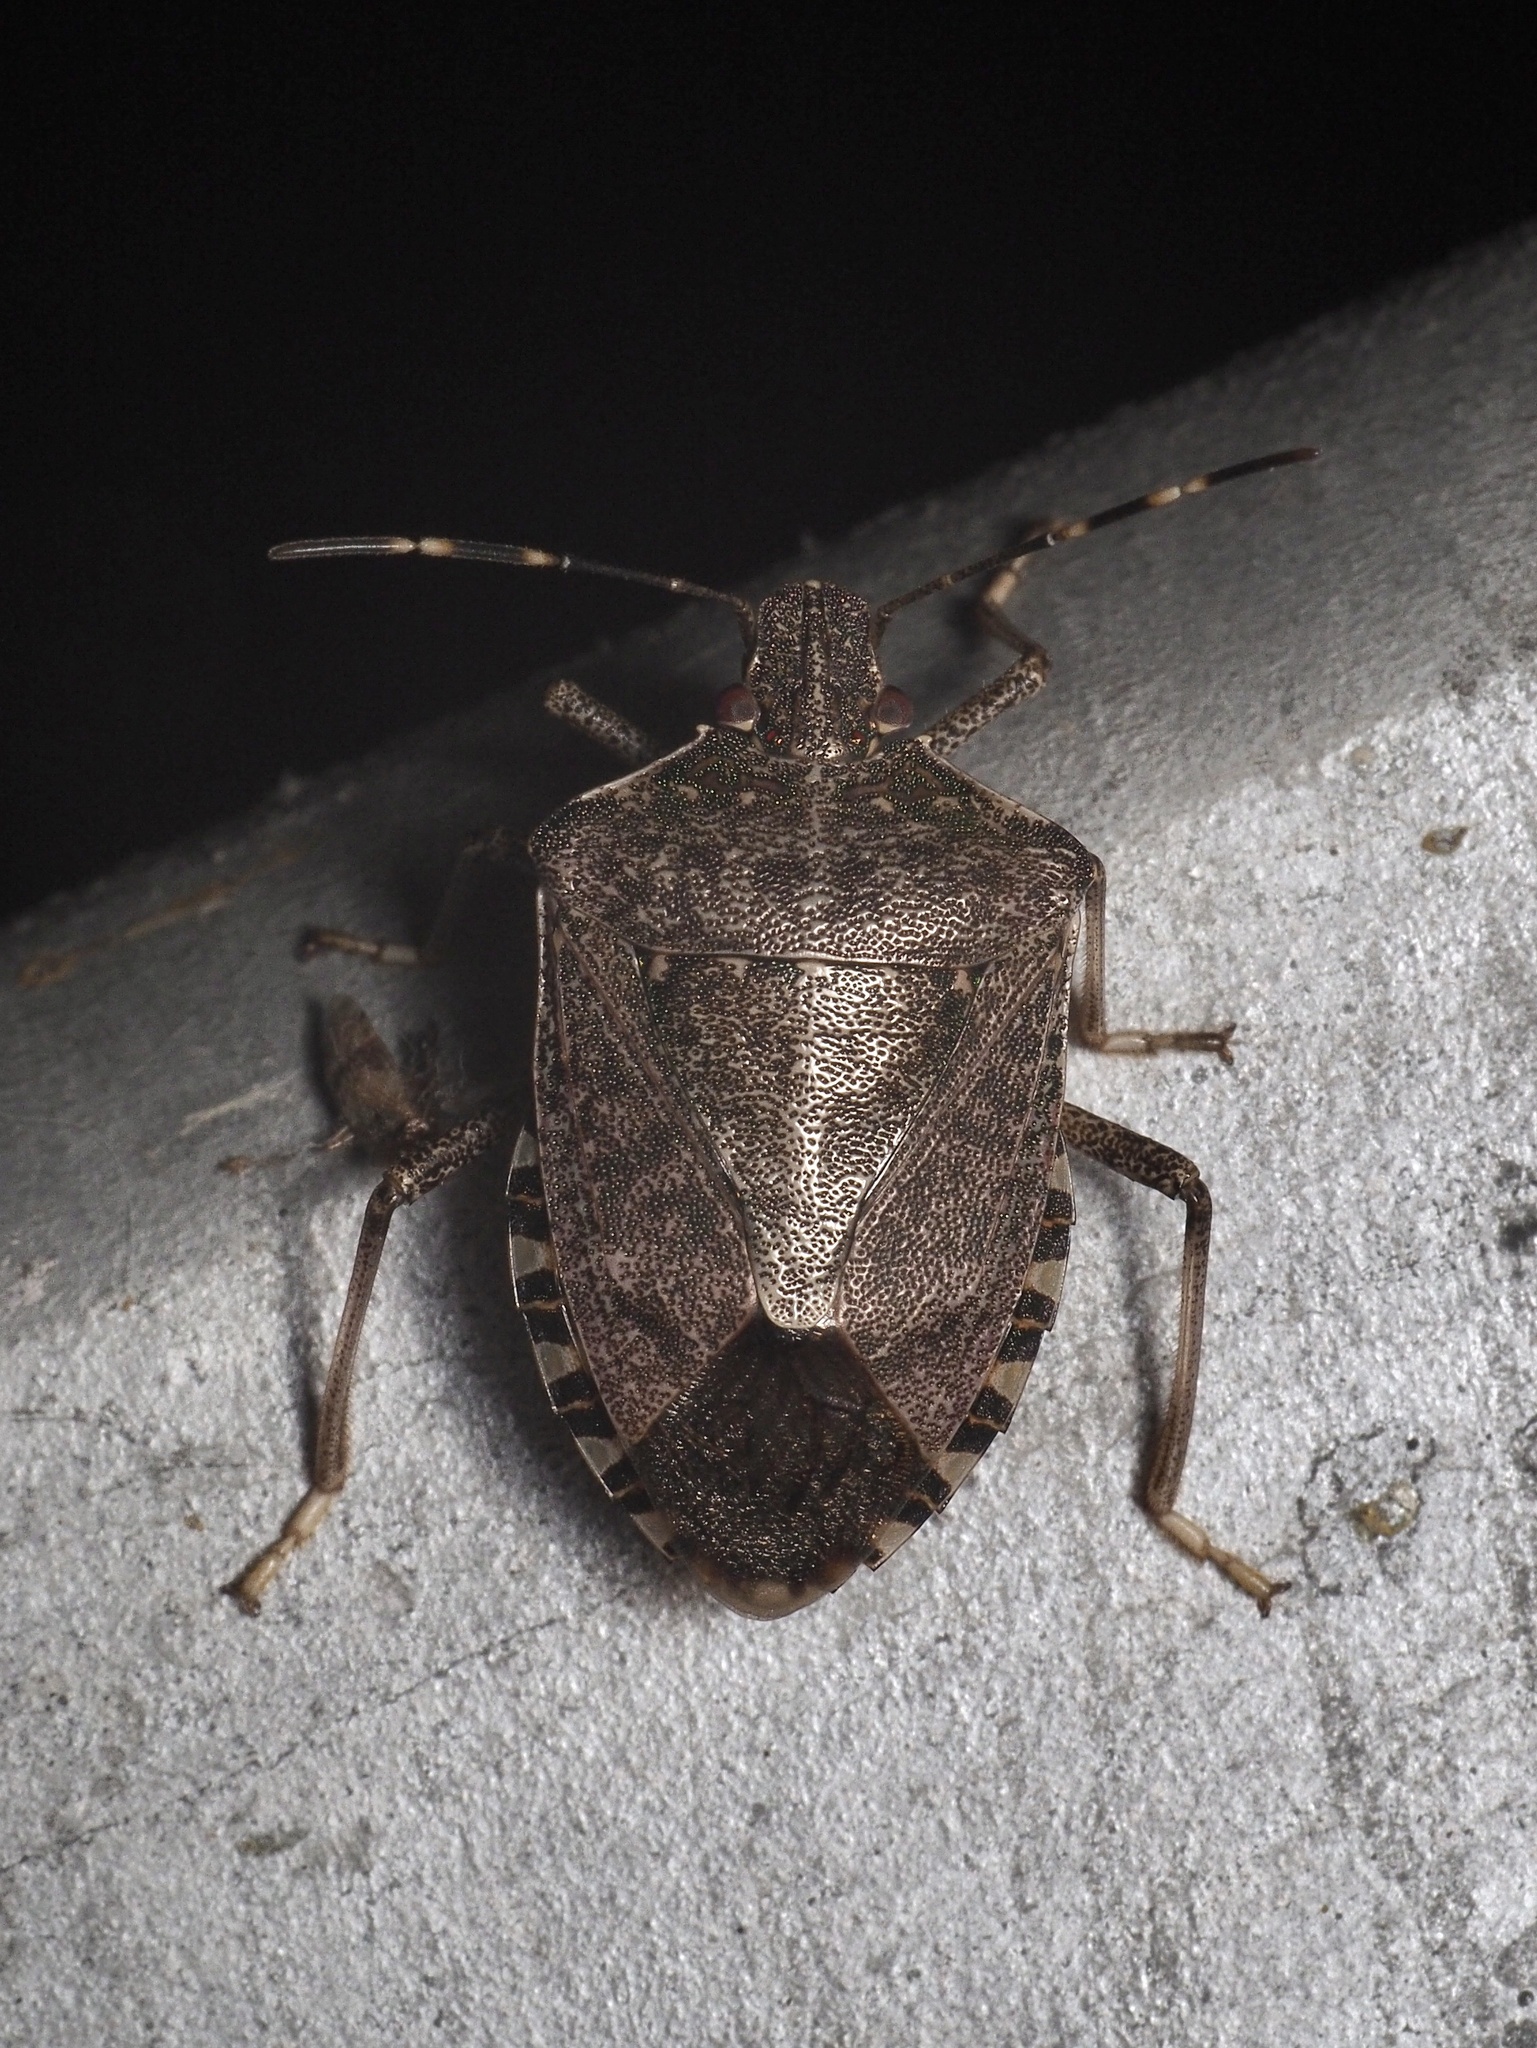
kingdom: Animalia
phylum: Arthropoda
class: Insecta
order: Hemiptera
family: Pentatomidae
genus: Halyomorpha
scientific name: Halyomorpha halys
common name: Brown marmorated stink bug
